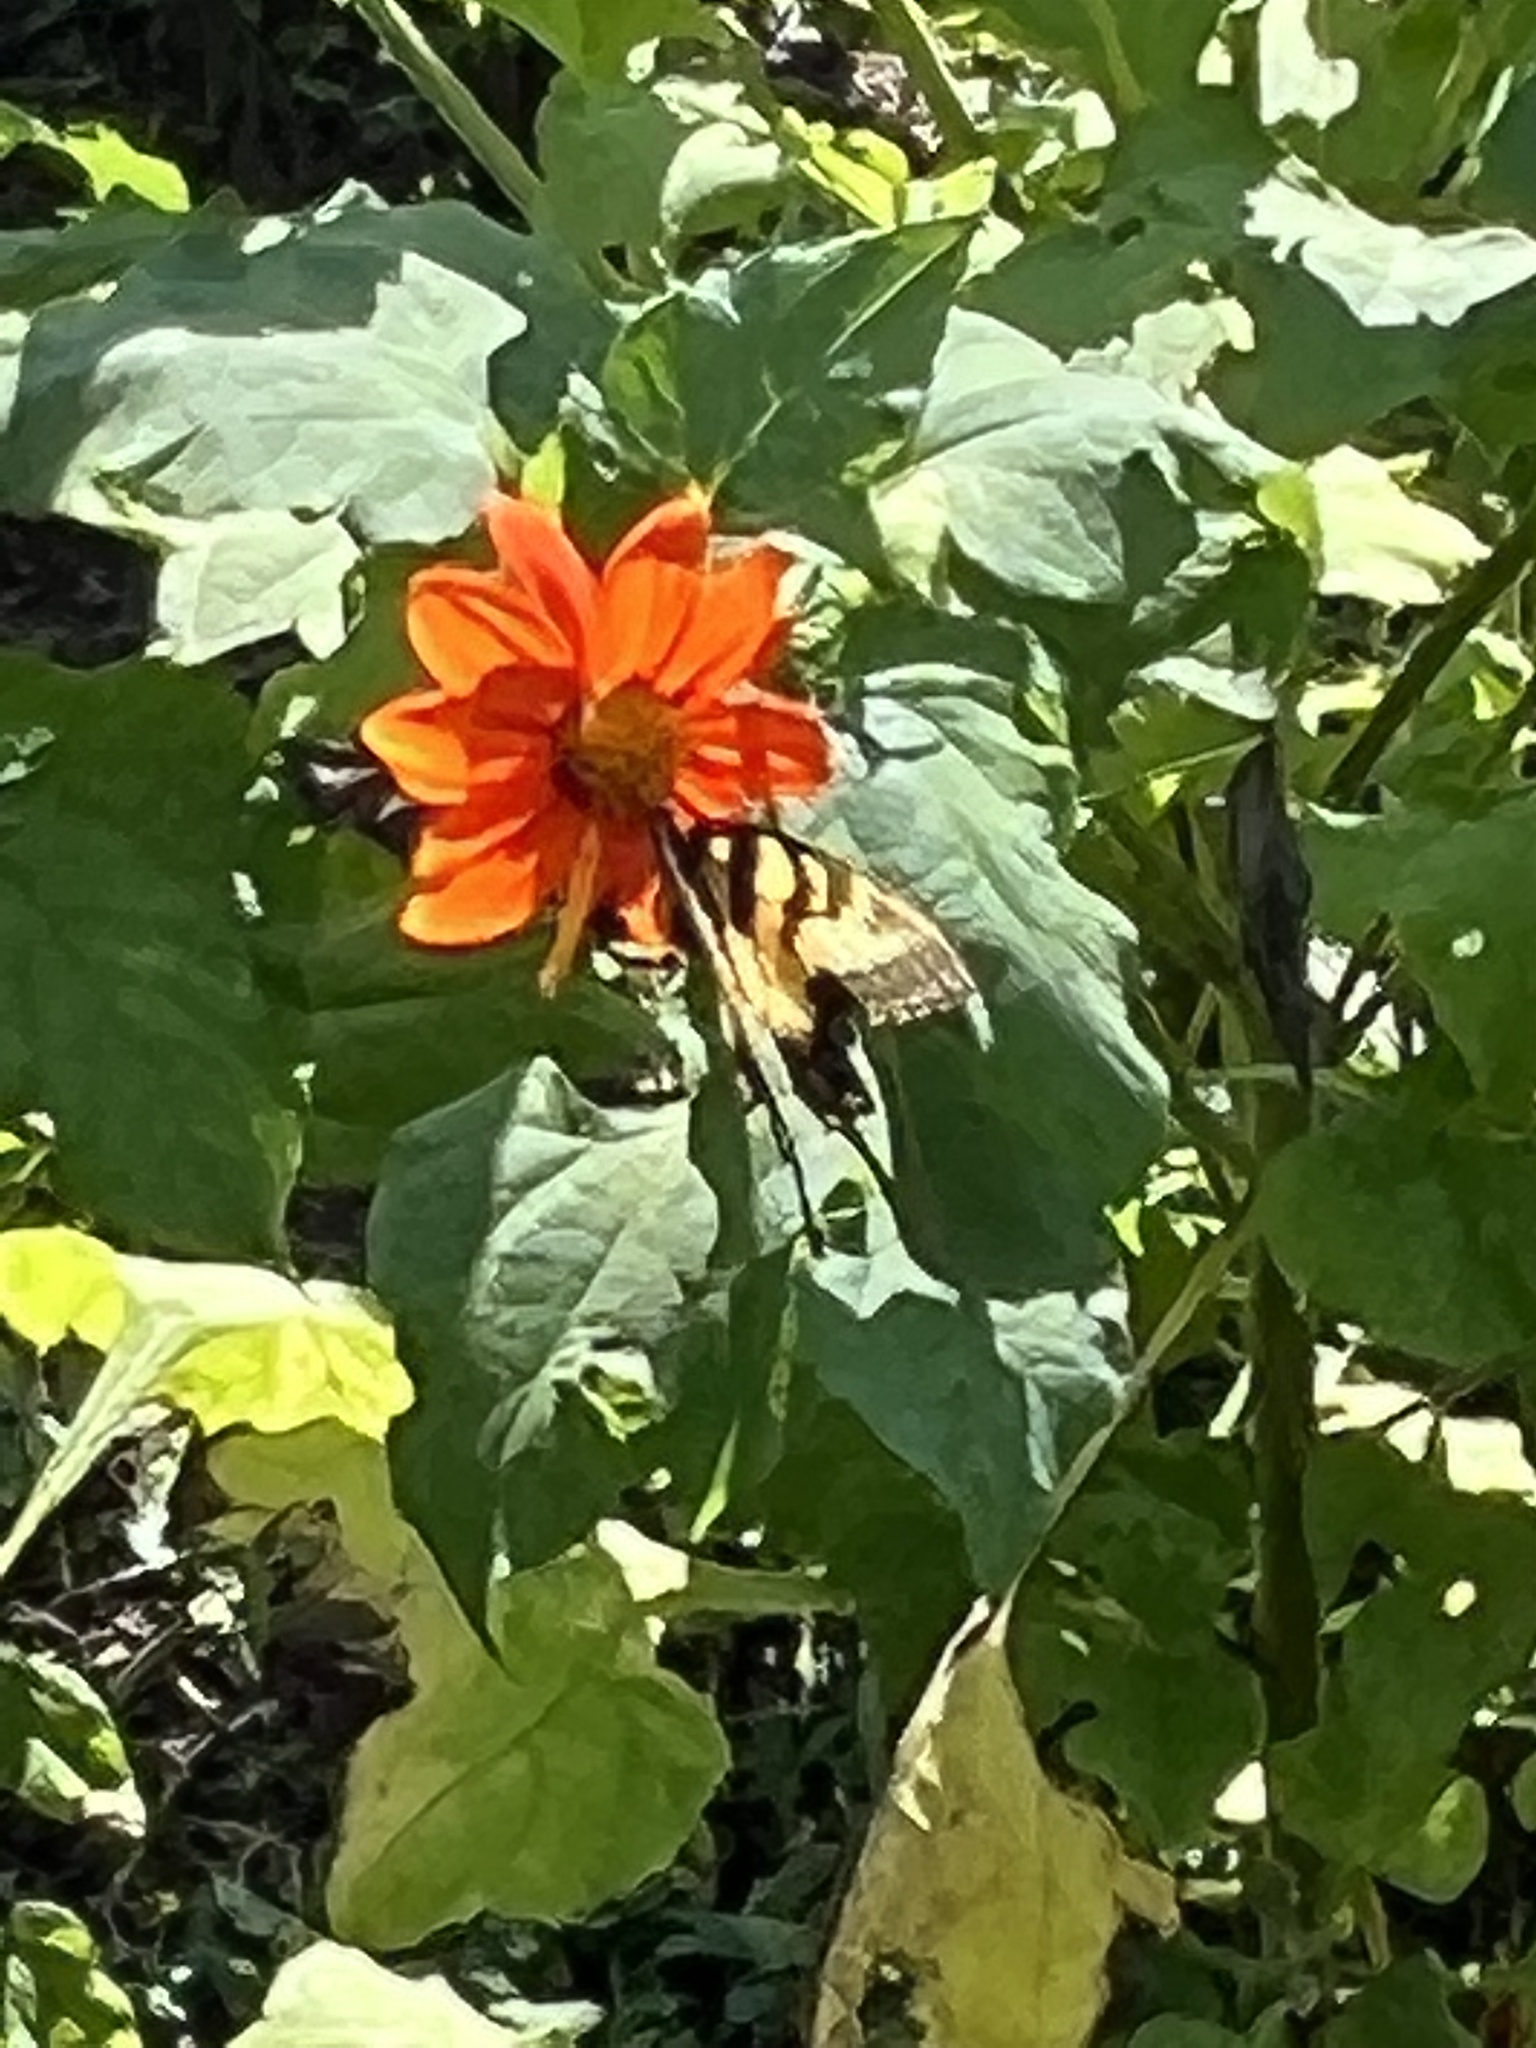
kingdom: Animalia
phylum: Arthropoda
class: Insecta
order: Lepidoptera
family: Papilionidae
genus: Papilio
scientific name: Papilio glaucus
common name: Tiger swallowtail
